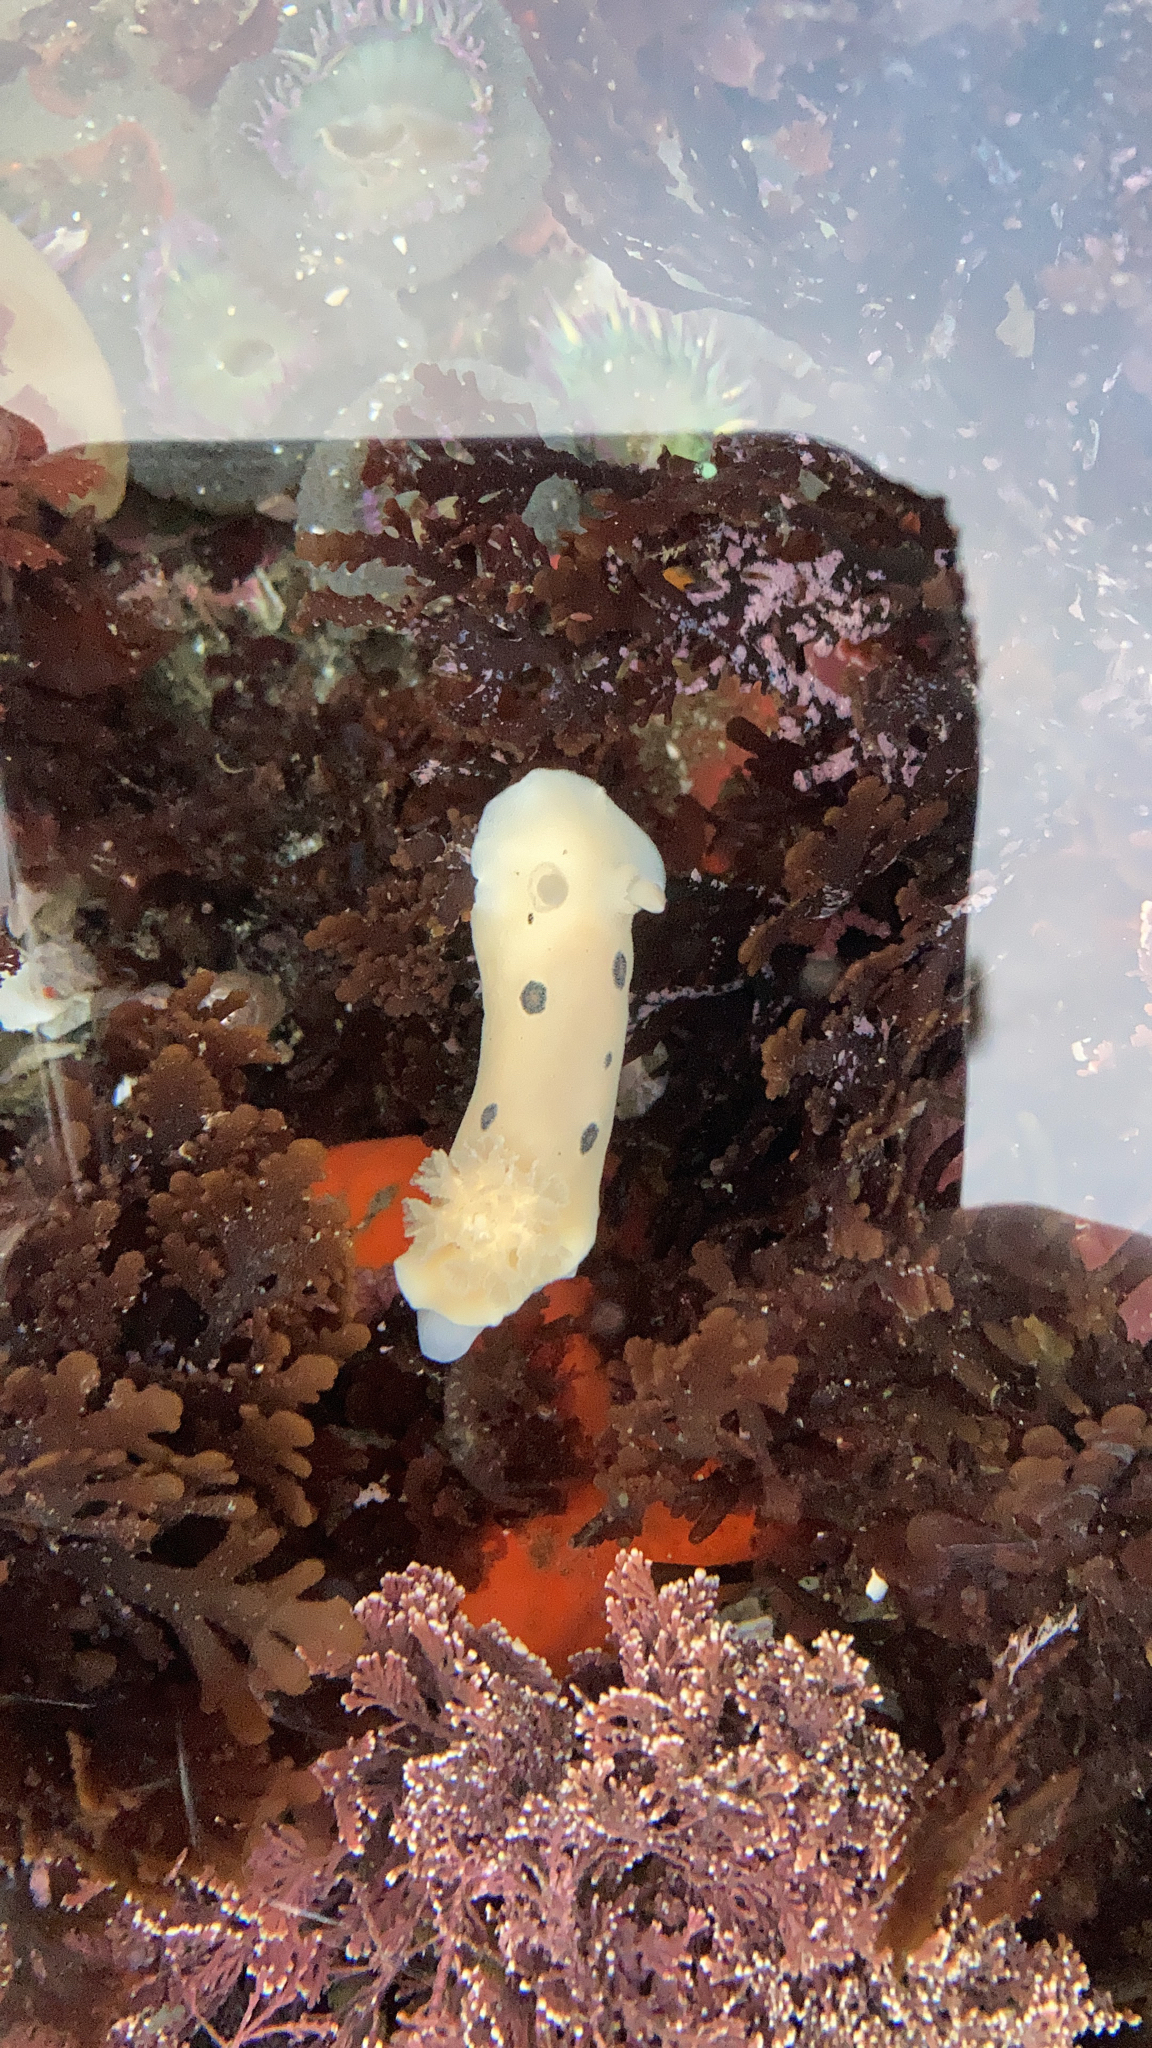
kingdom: Animalia
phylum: Mollusca
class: Gastropoda
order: Nudibranchia
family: Discodorididae
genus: Diaulula
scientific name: Diaulula sandiegensis
